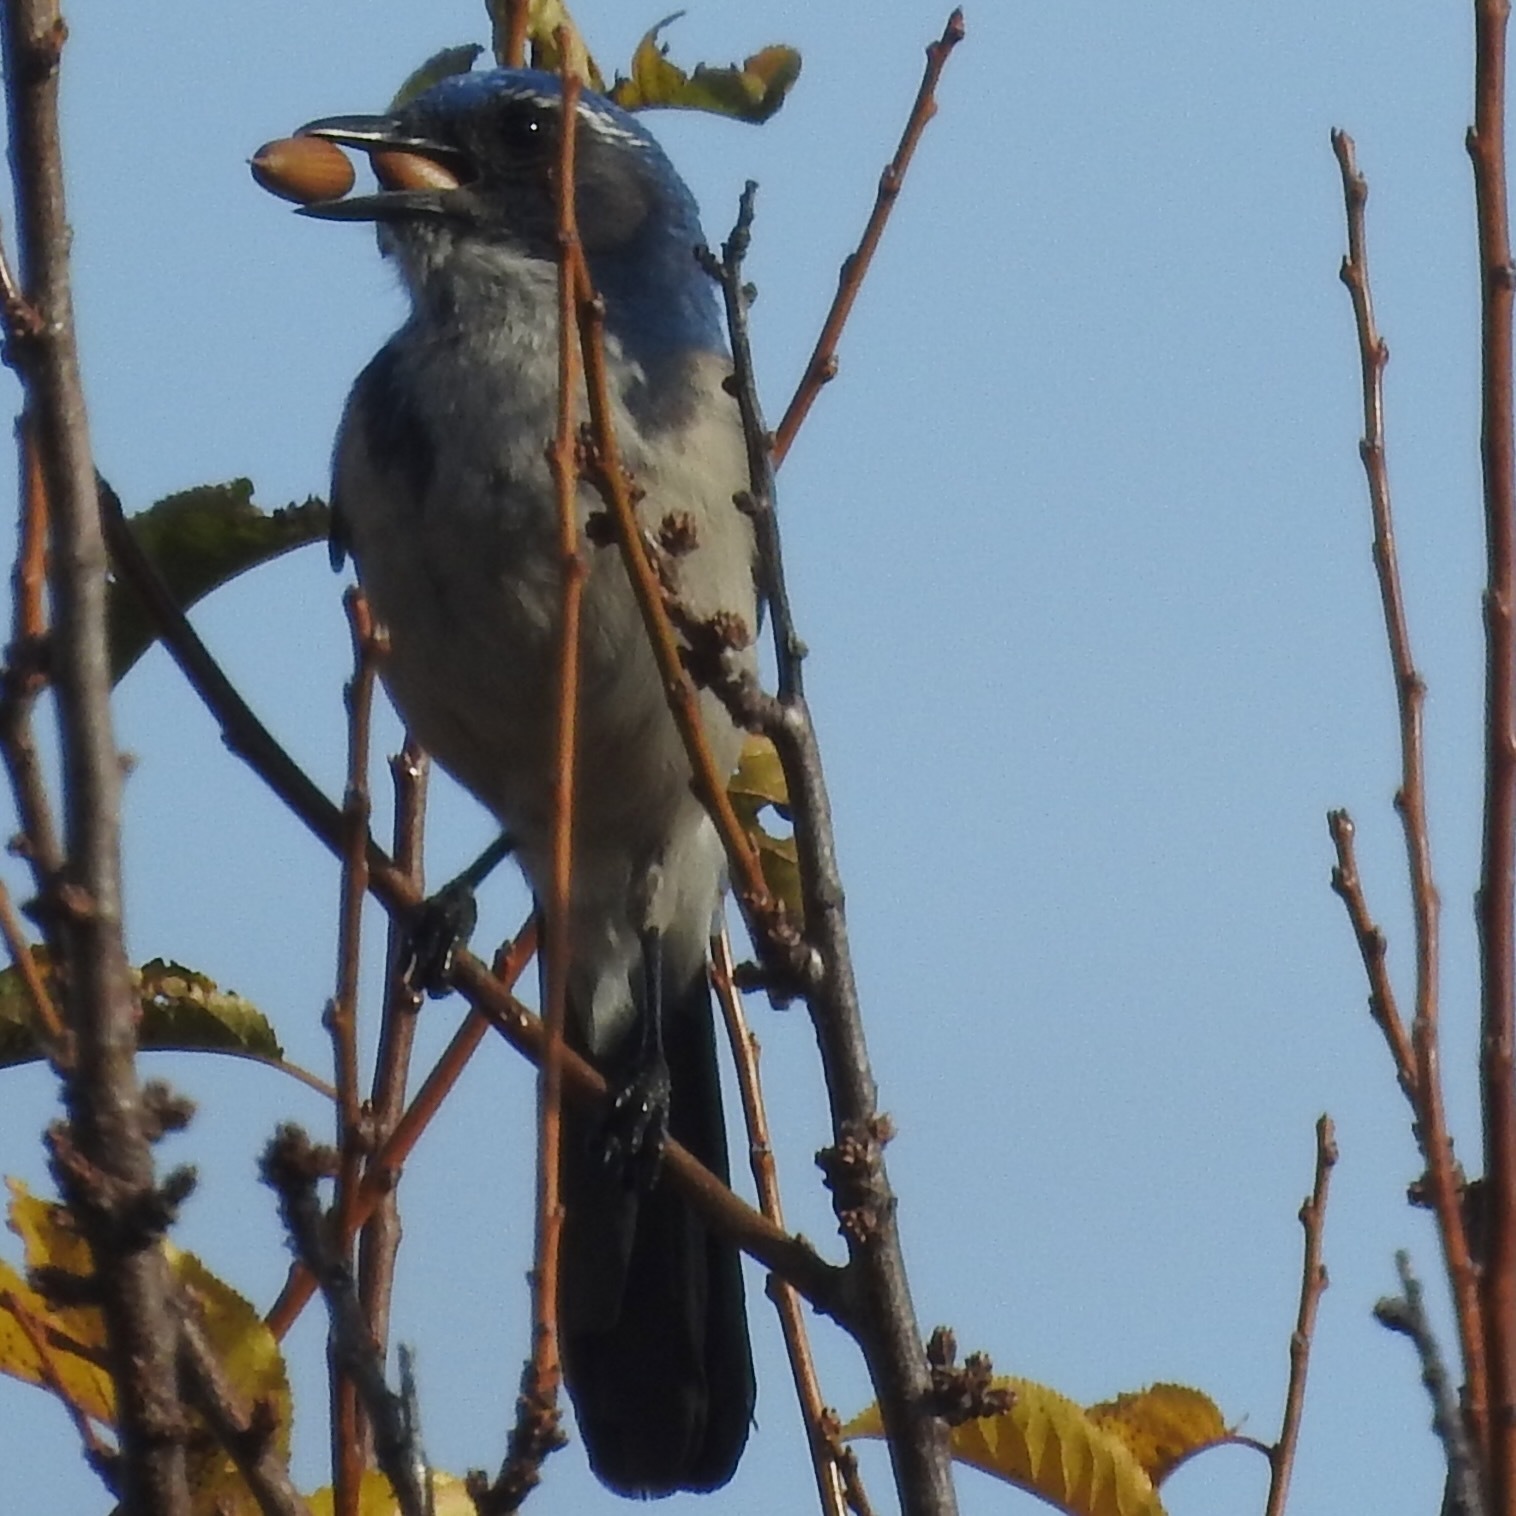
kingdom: Animalia
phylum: Chordata
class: Aves
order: Passeriformes
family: Corvidae
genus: Aphelocoma
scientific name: Aphelocoma californica
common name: California scrub-jay
